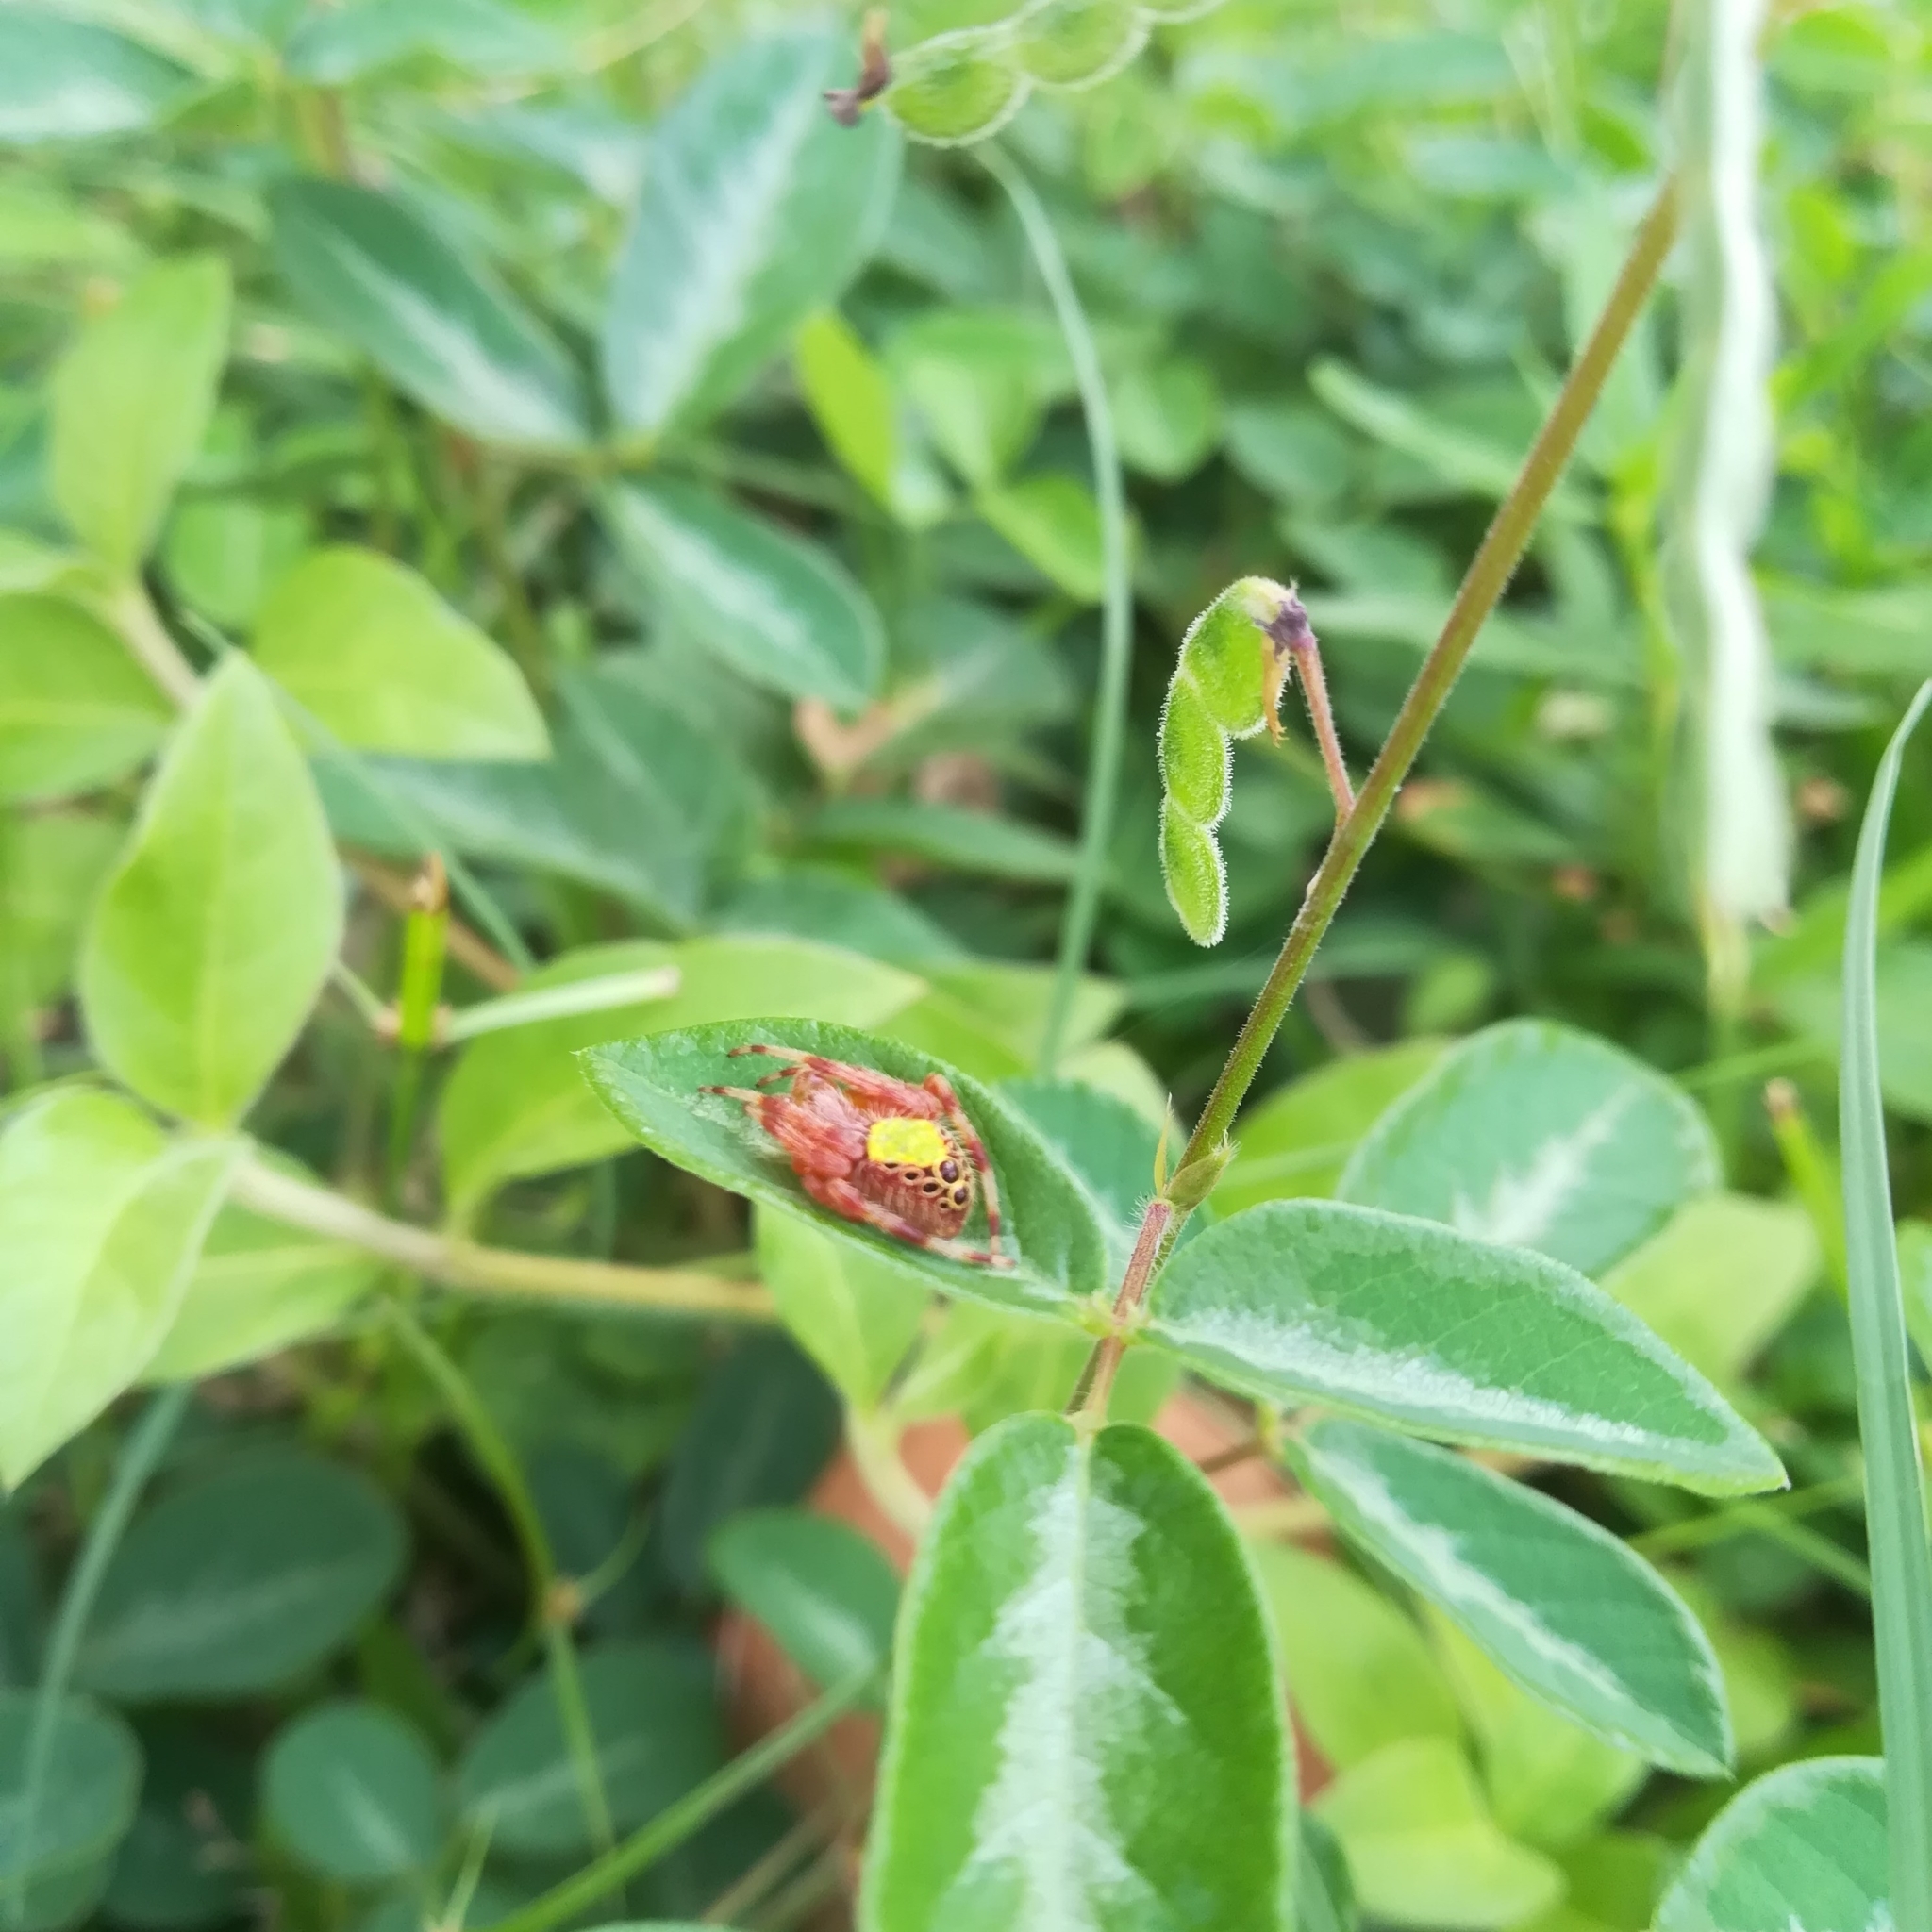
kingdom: Animalia
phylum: Arthropoda
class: Arachnida
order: Araneae
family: Araneidae
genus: Eriophora
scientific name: Eriophora ravilla
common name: Orb weavers
